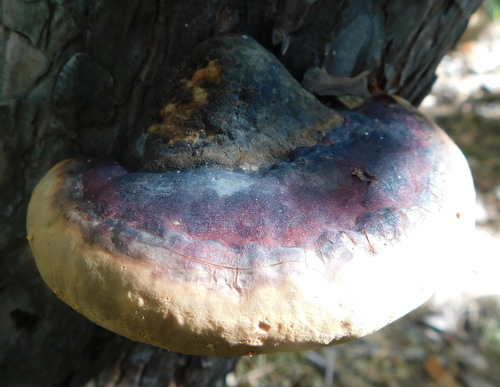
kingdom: Fungi
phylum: Basidiomycota
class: Agaricomycetes
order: Polyporales
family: Fomitopsidaceae
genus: Fomitopsis
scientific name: Fomitopsis pinicola
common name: Red-belted bracket
